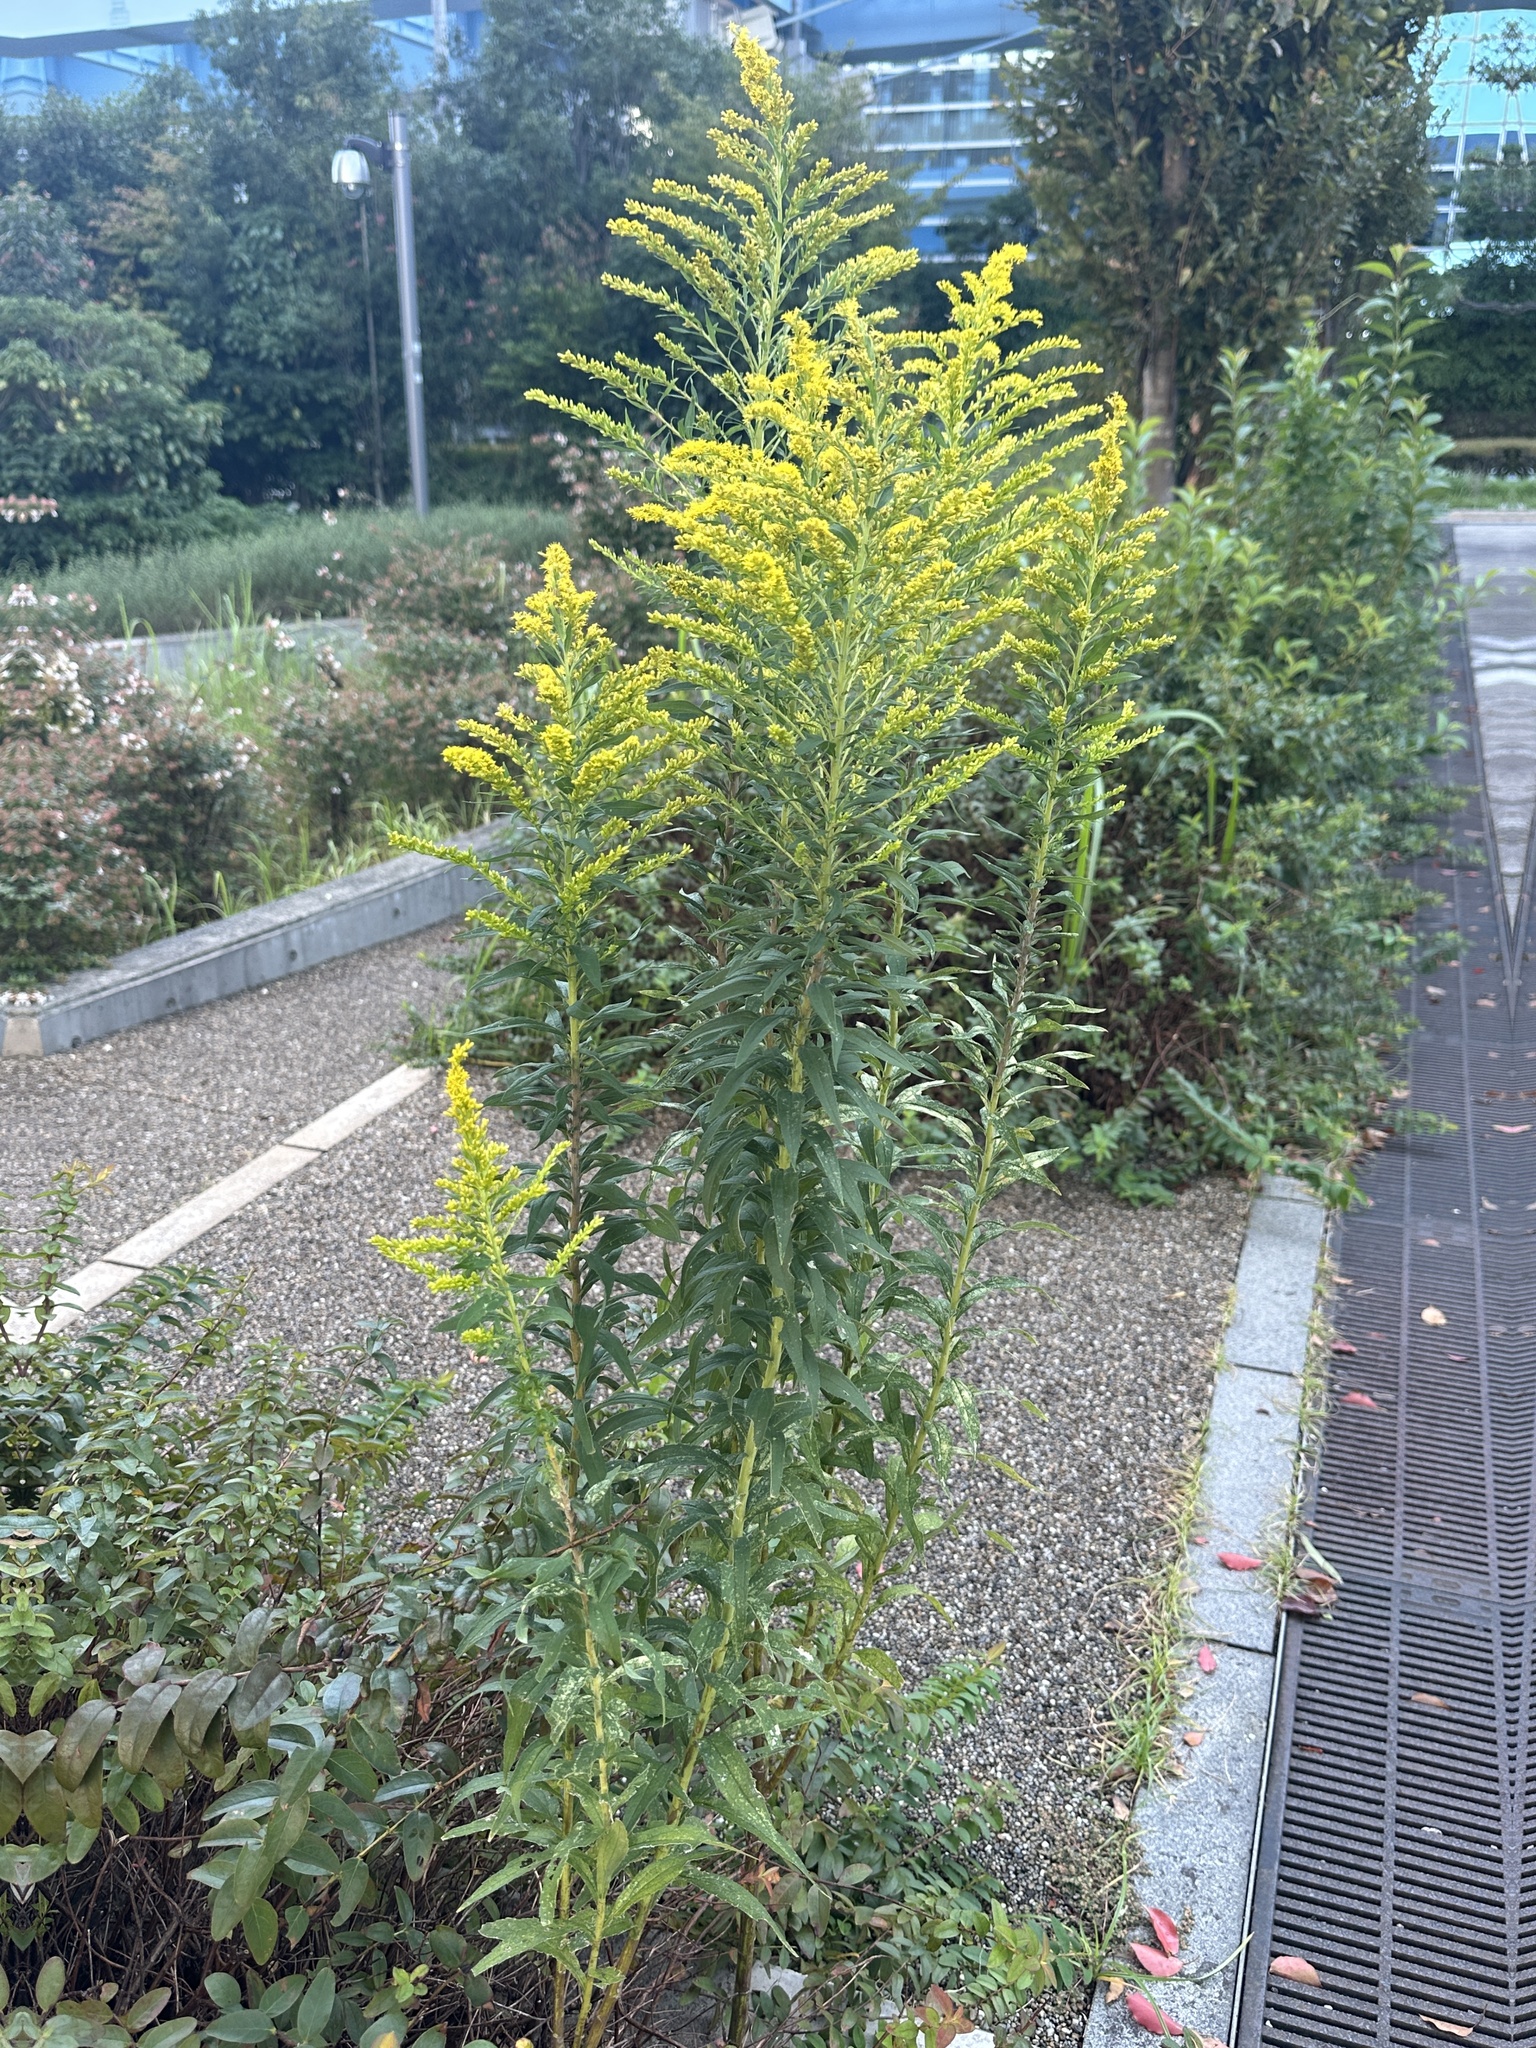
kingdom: Plantae
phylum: Tracheophyta
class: Magnoliopsida
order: Asterales
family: Asteraceae
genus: Solidago
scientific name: Solidago altissima
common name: Late goldenrod
